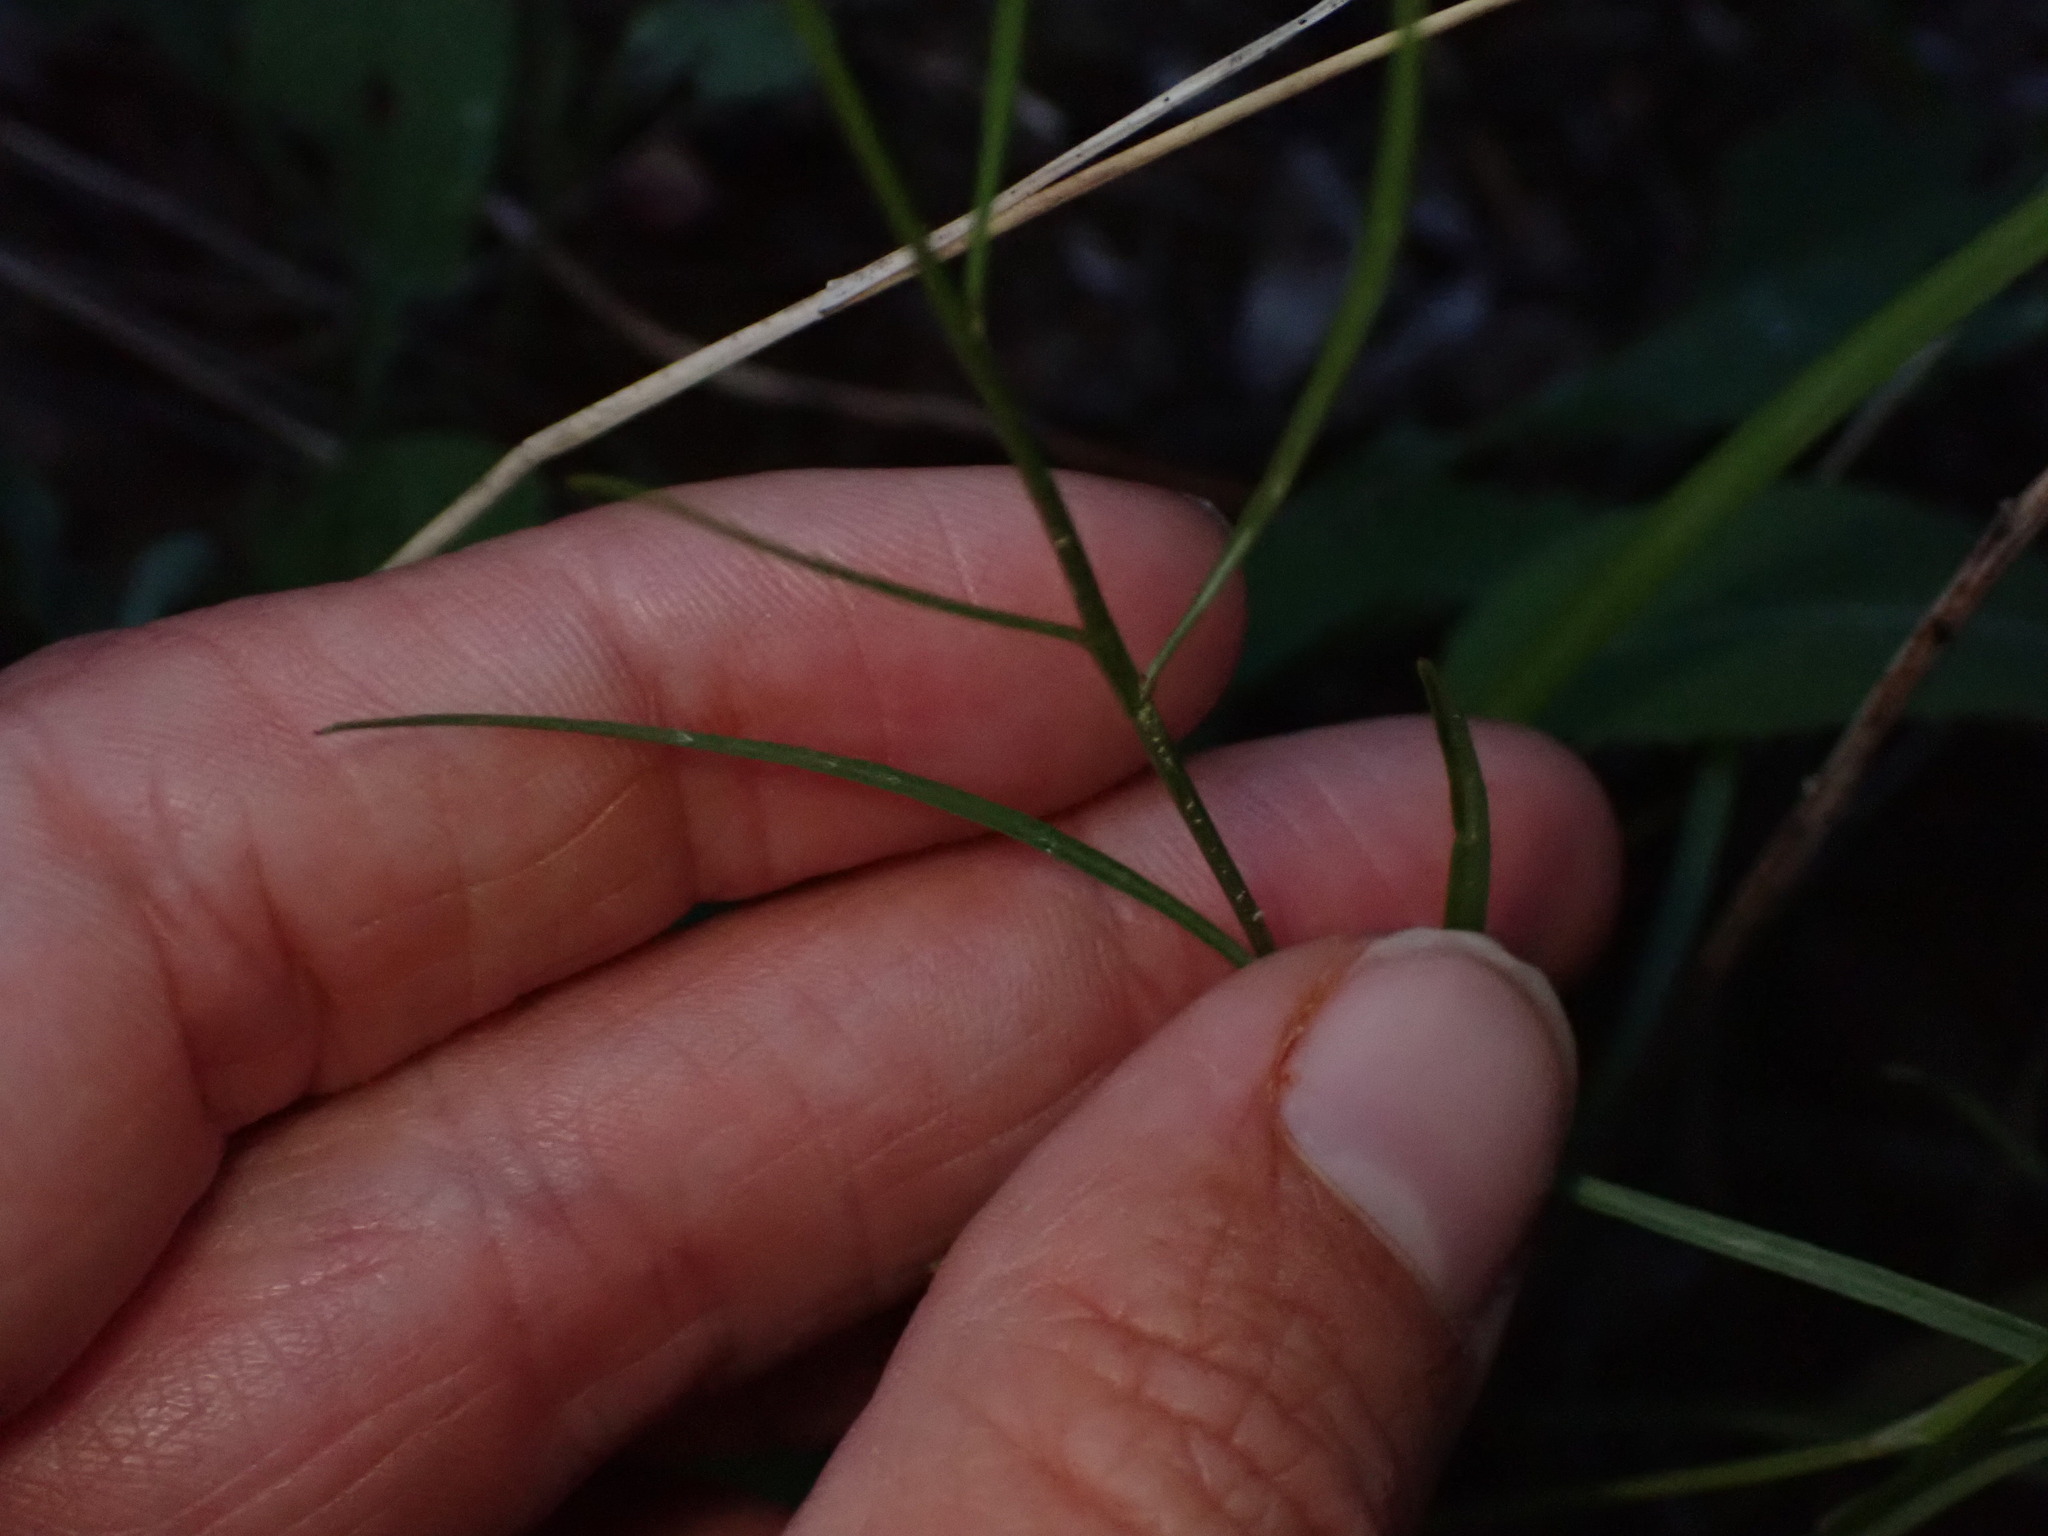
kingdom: Plantae
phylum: Tracheophyta
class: Magnoliopsida
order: Asterales
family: Campanulaceae
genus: Campanula
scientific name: Campanula alaskana
